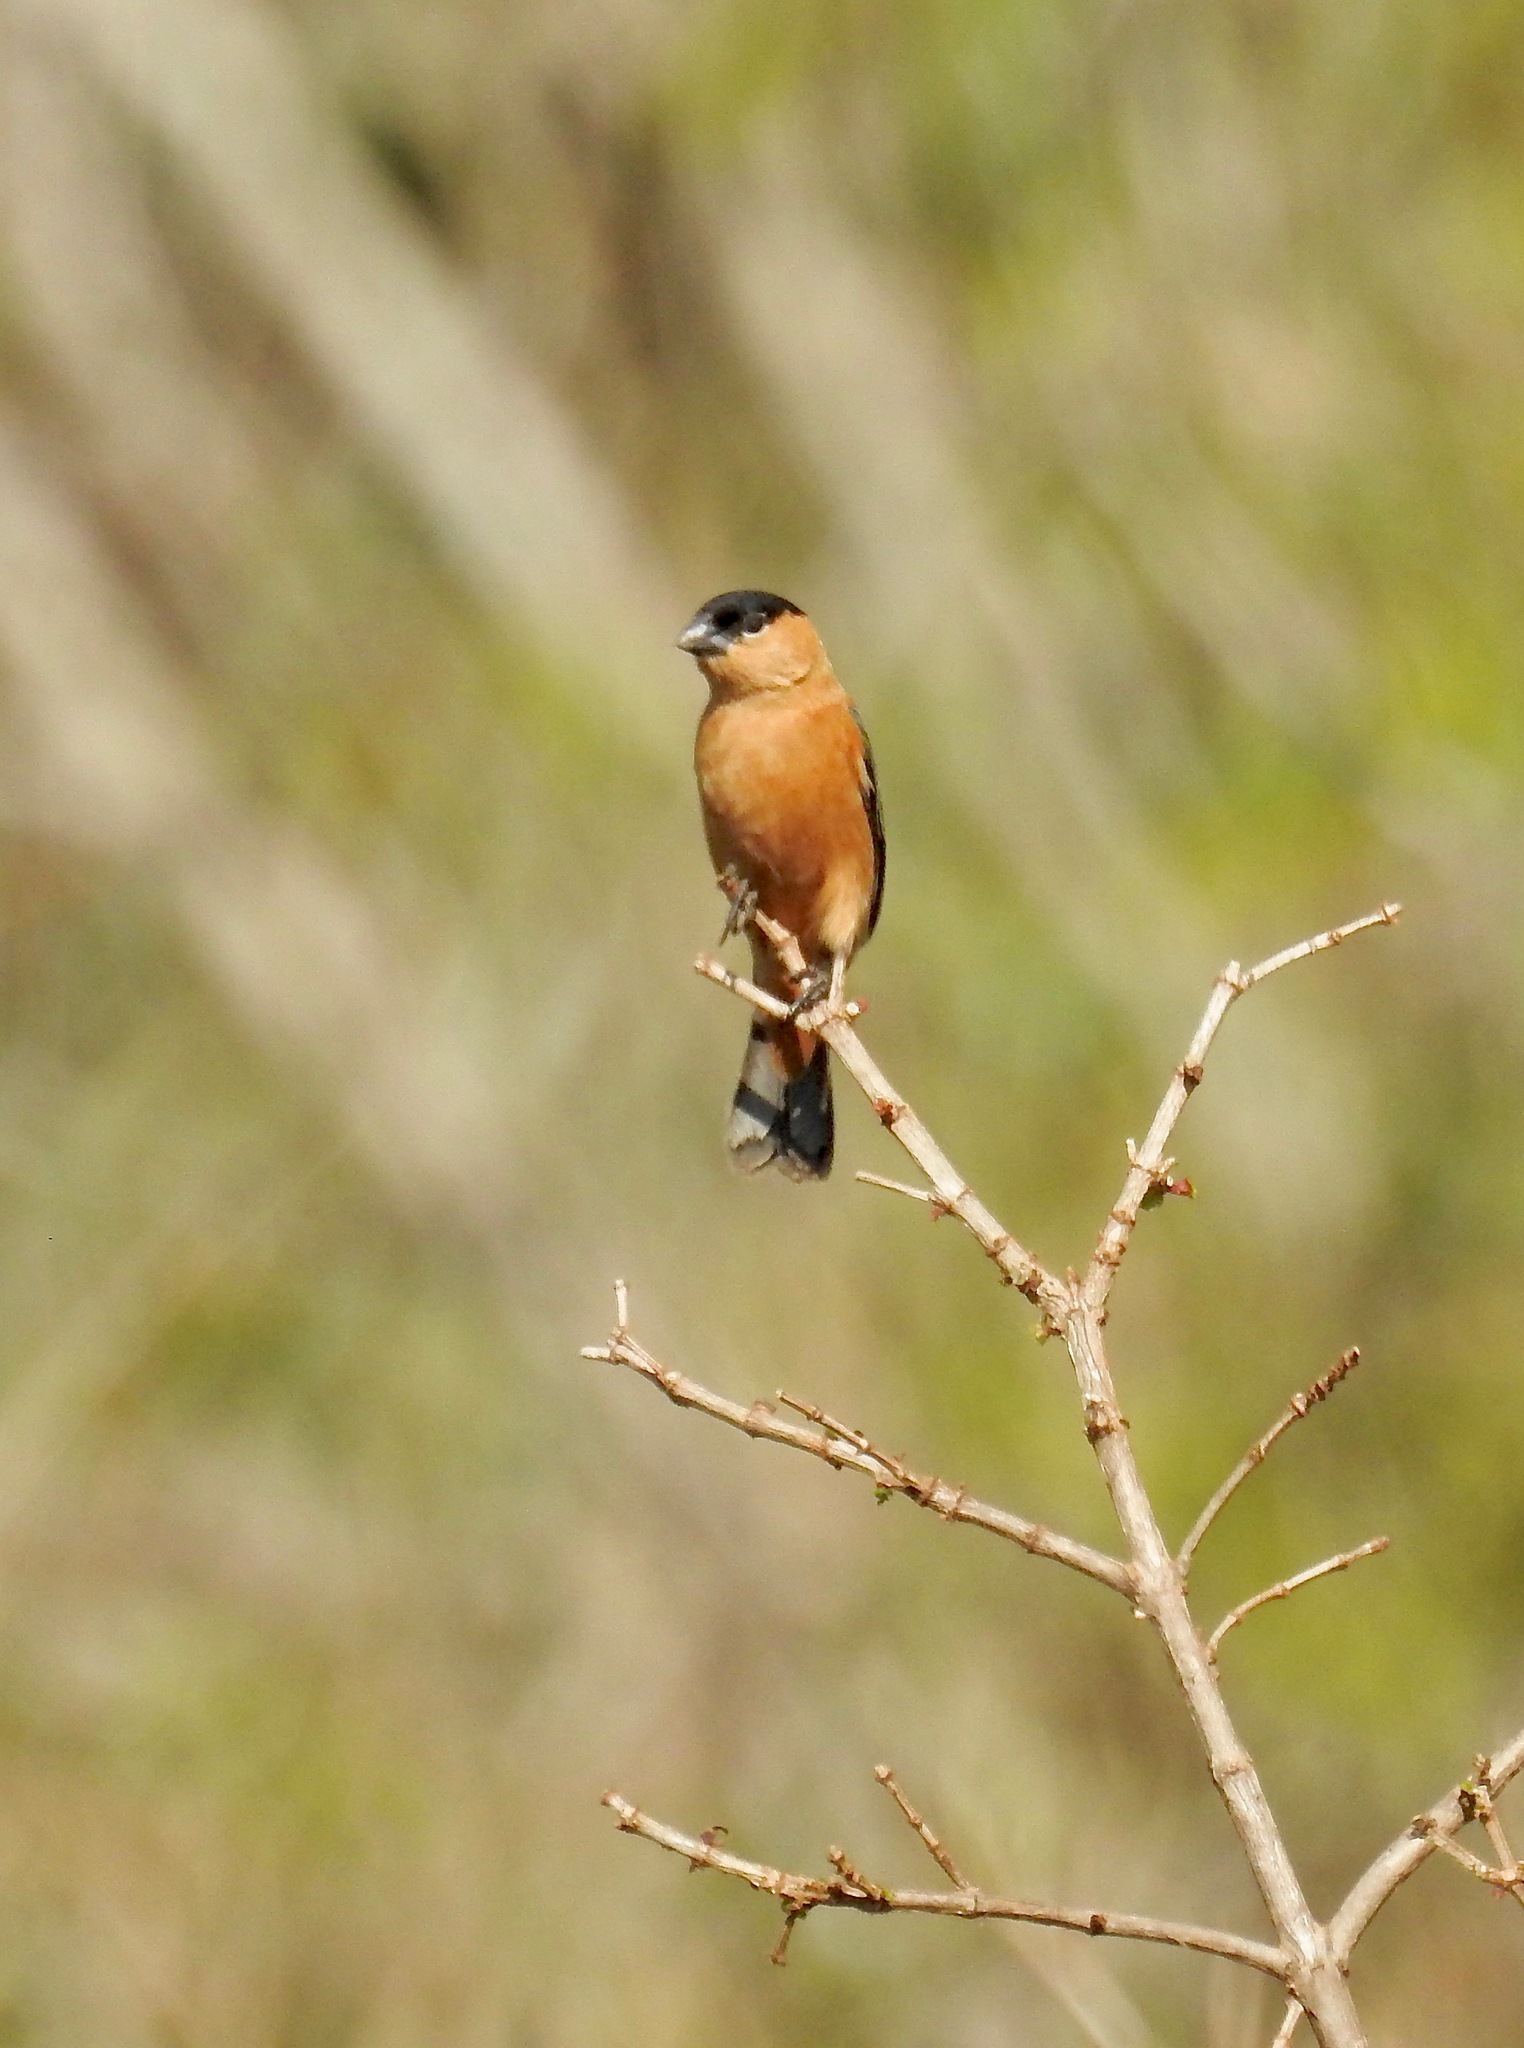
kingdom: Animalia
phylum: Chordata
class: Aves
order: Passeriformes
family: Thraupidae
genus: Sporophila
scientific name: Sporophila bouvreuil
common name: Copper seedeater
